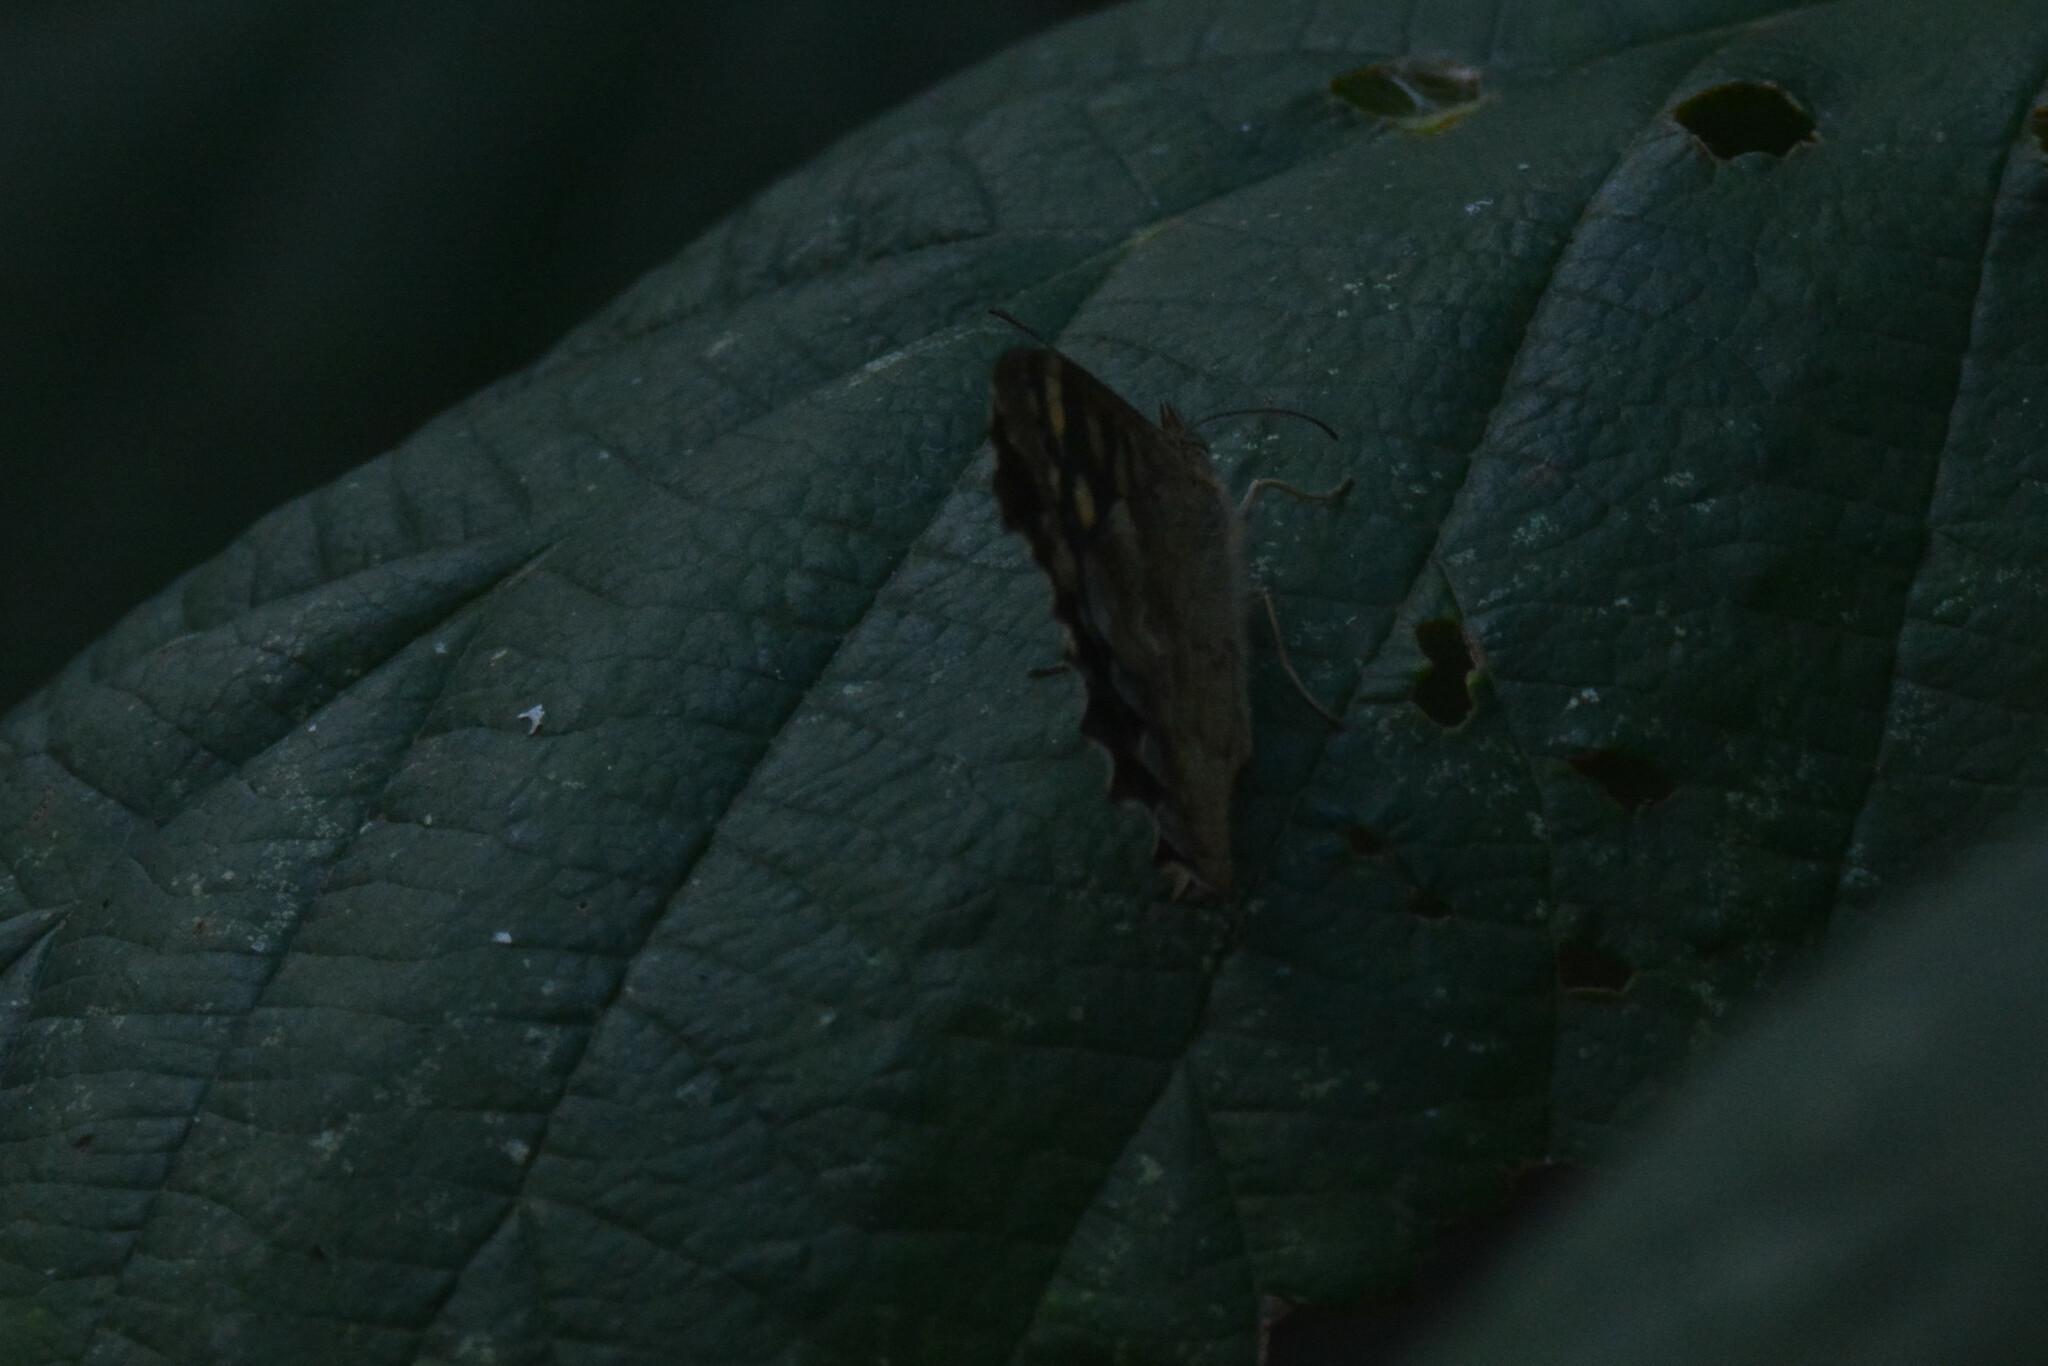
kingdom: Animalia
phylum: Arthropoda
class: Insecta
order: Lepidoptera
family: Nymphalidae
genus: Pararge
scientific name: Pararge aegeria
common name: Speckled wood
